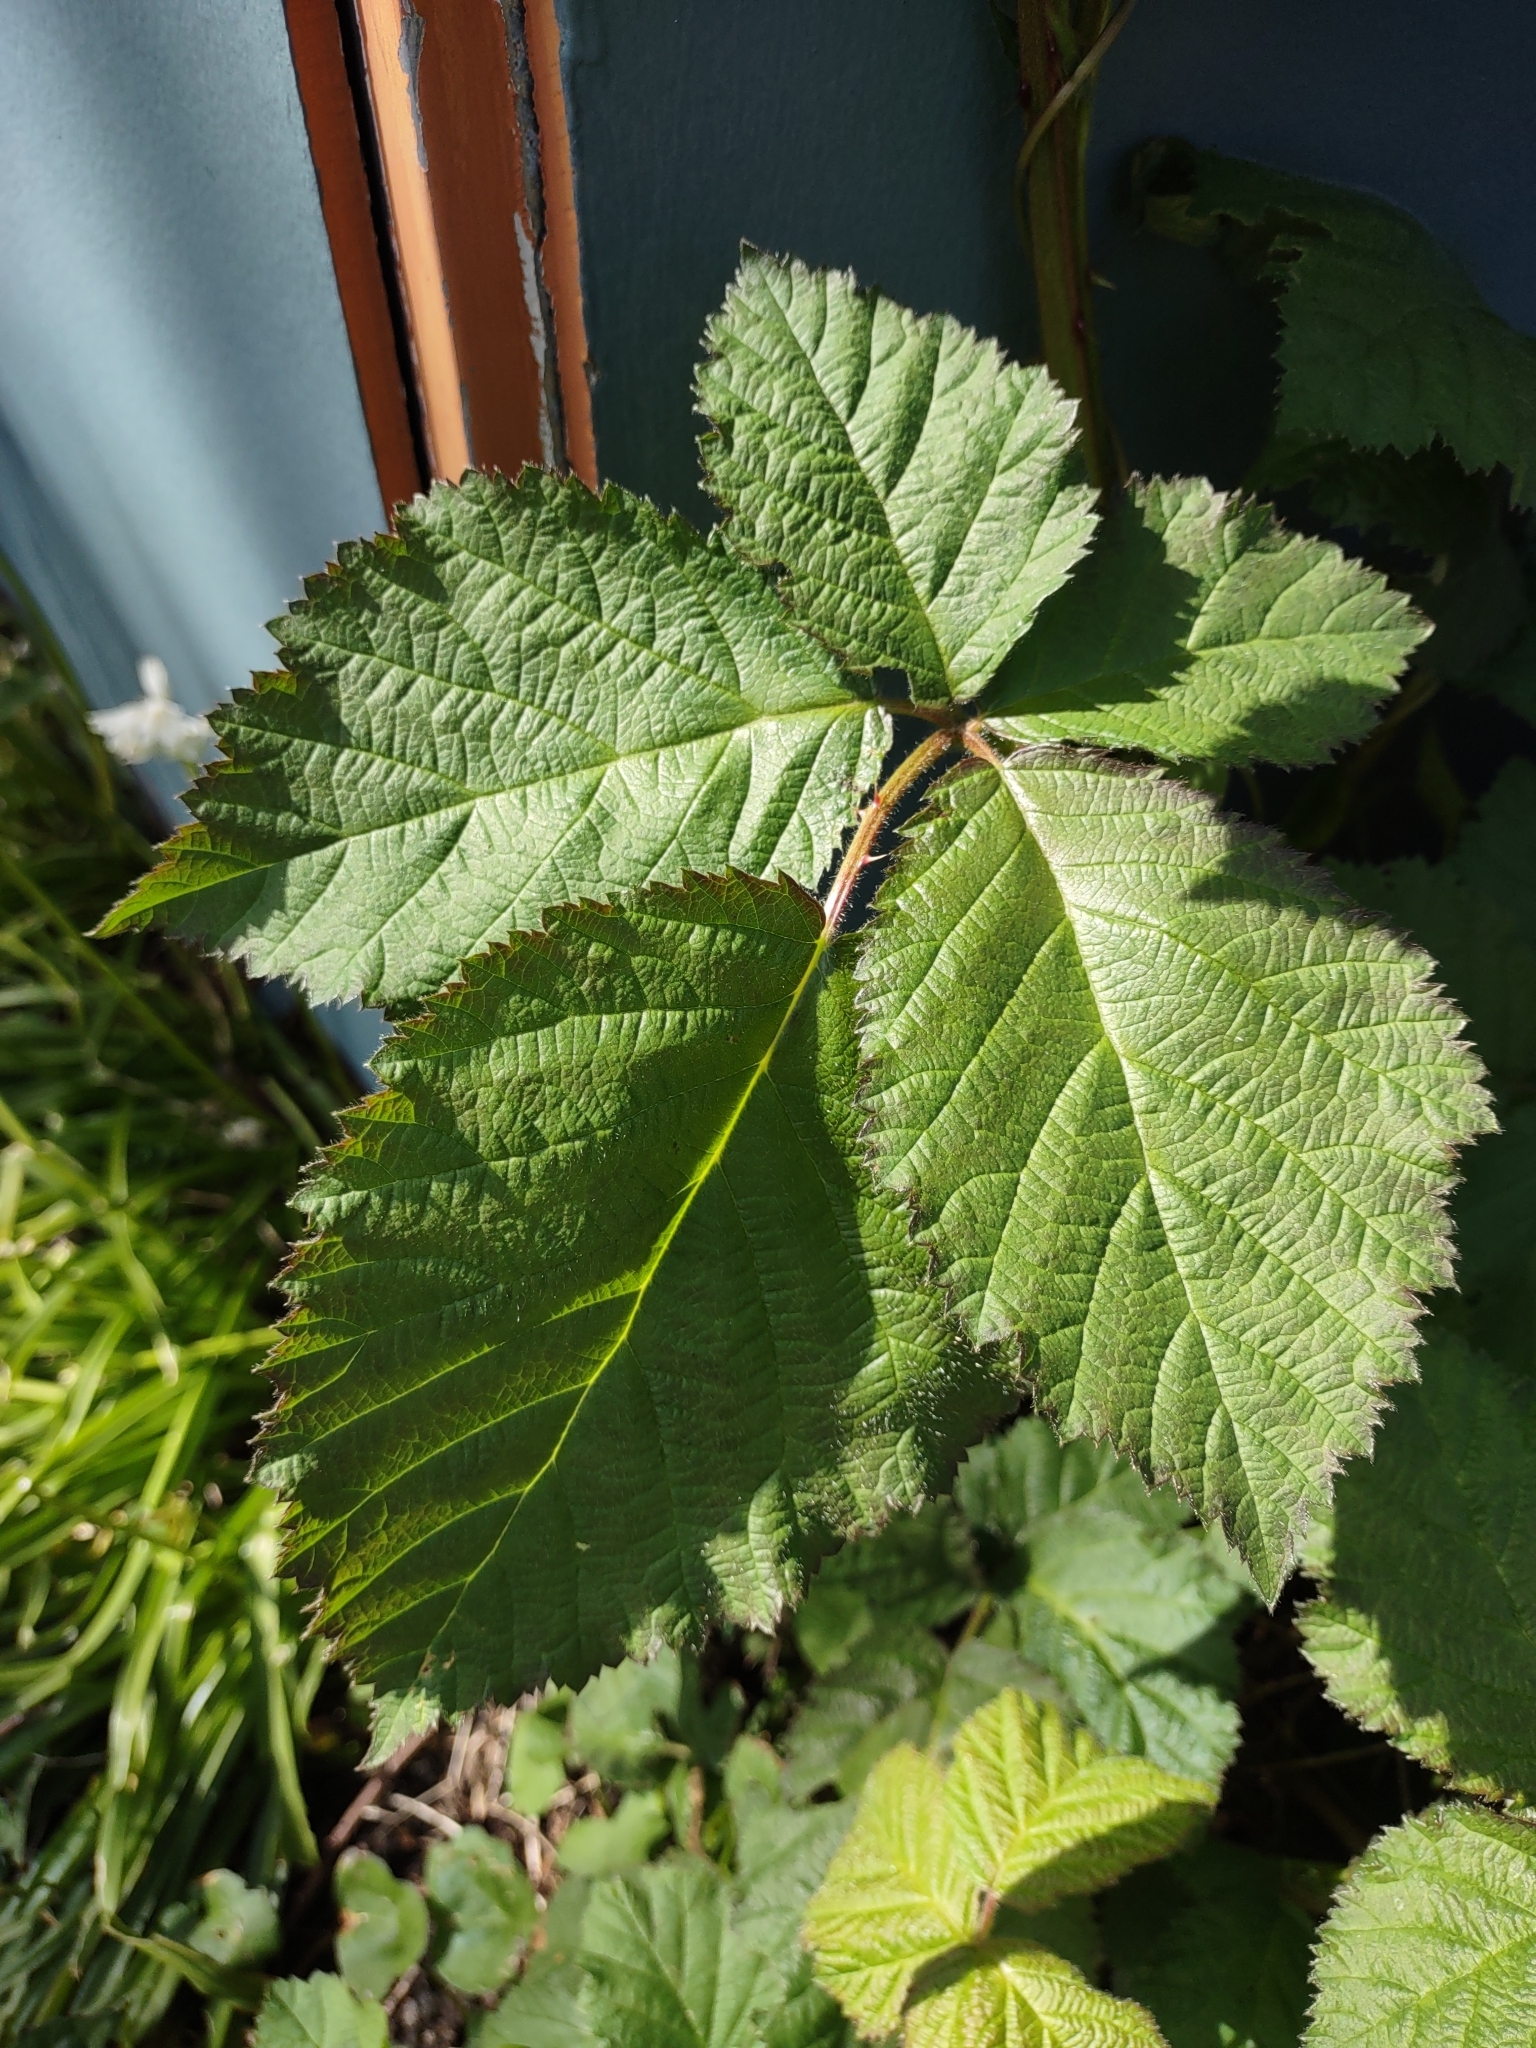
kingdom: Plantae
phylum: Tracheophyta
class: Magnoliopsida
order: Rosales
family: Rosaceae
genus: Rubus
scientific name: Rubus bifrons
